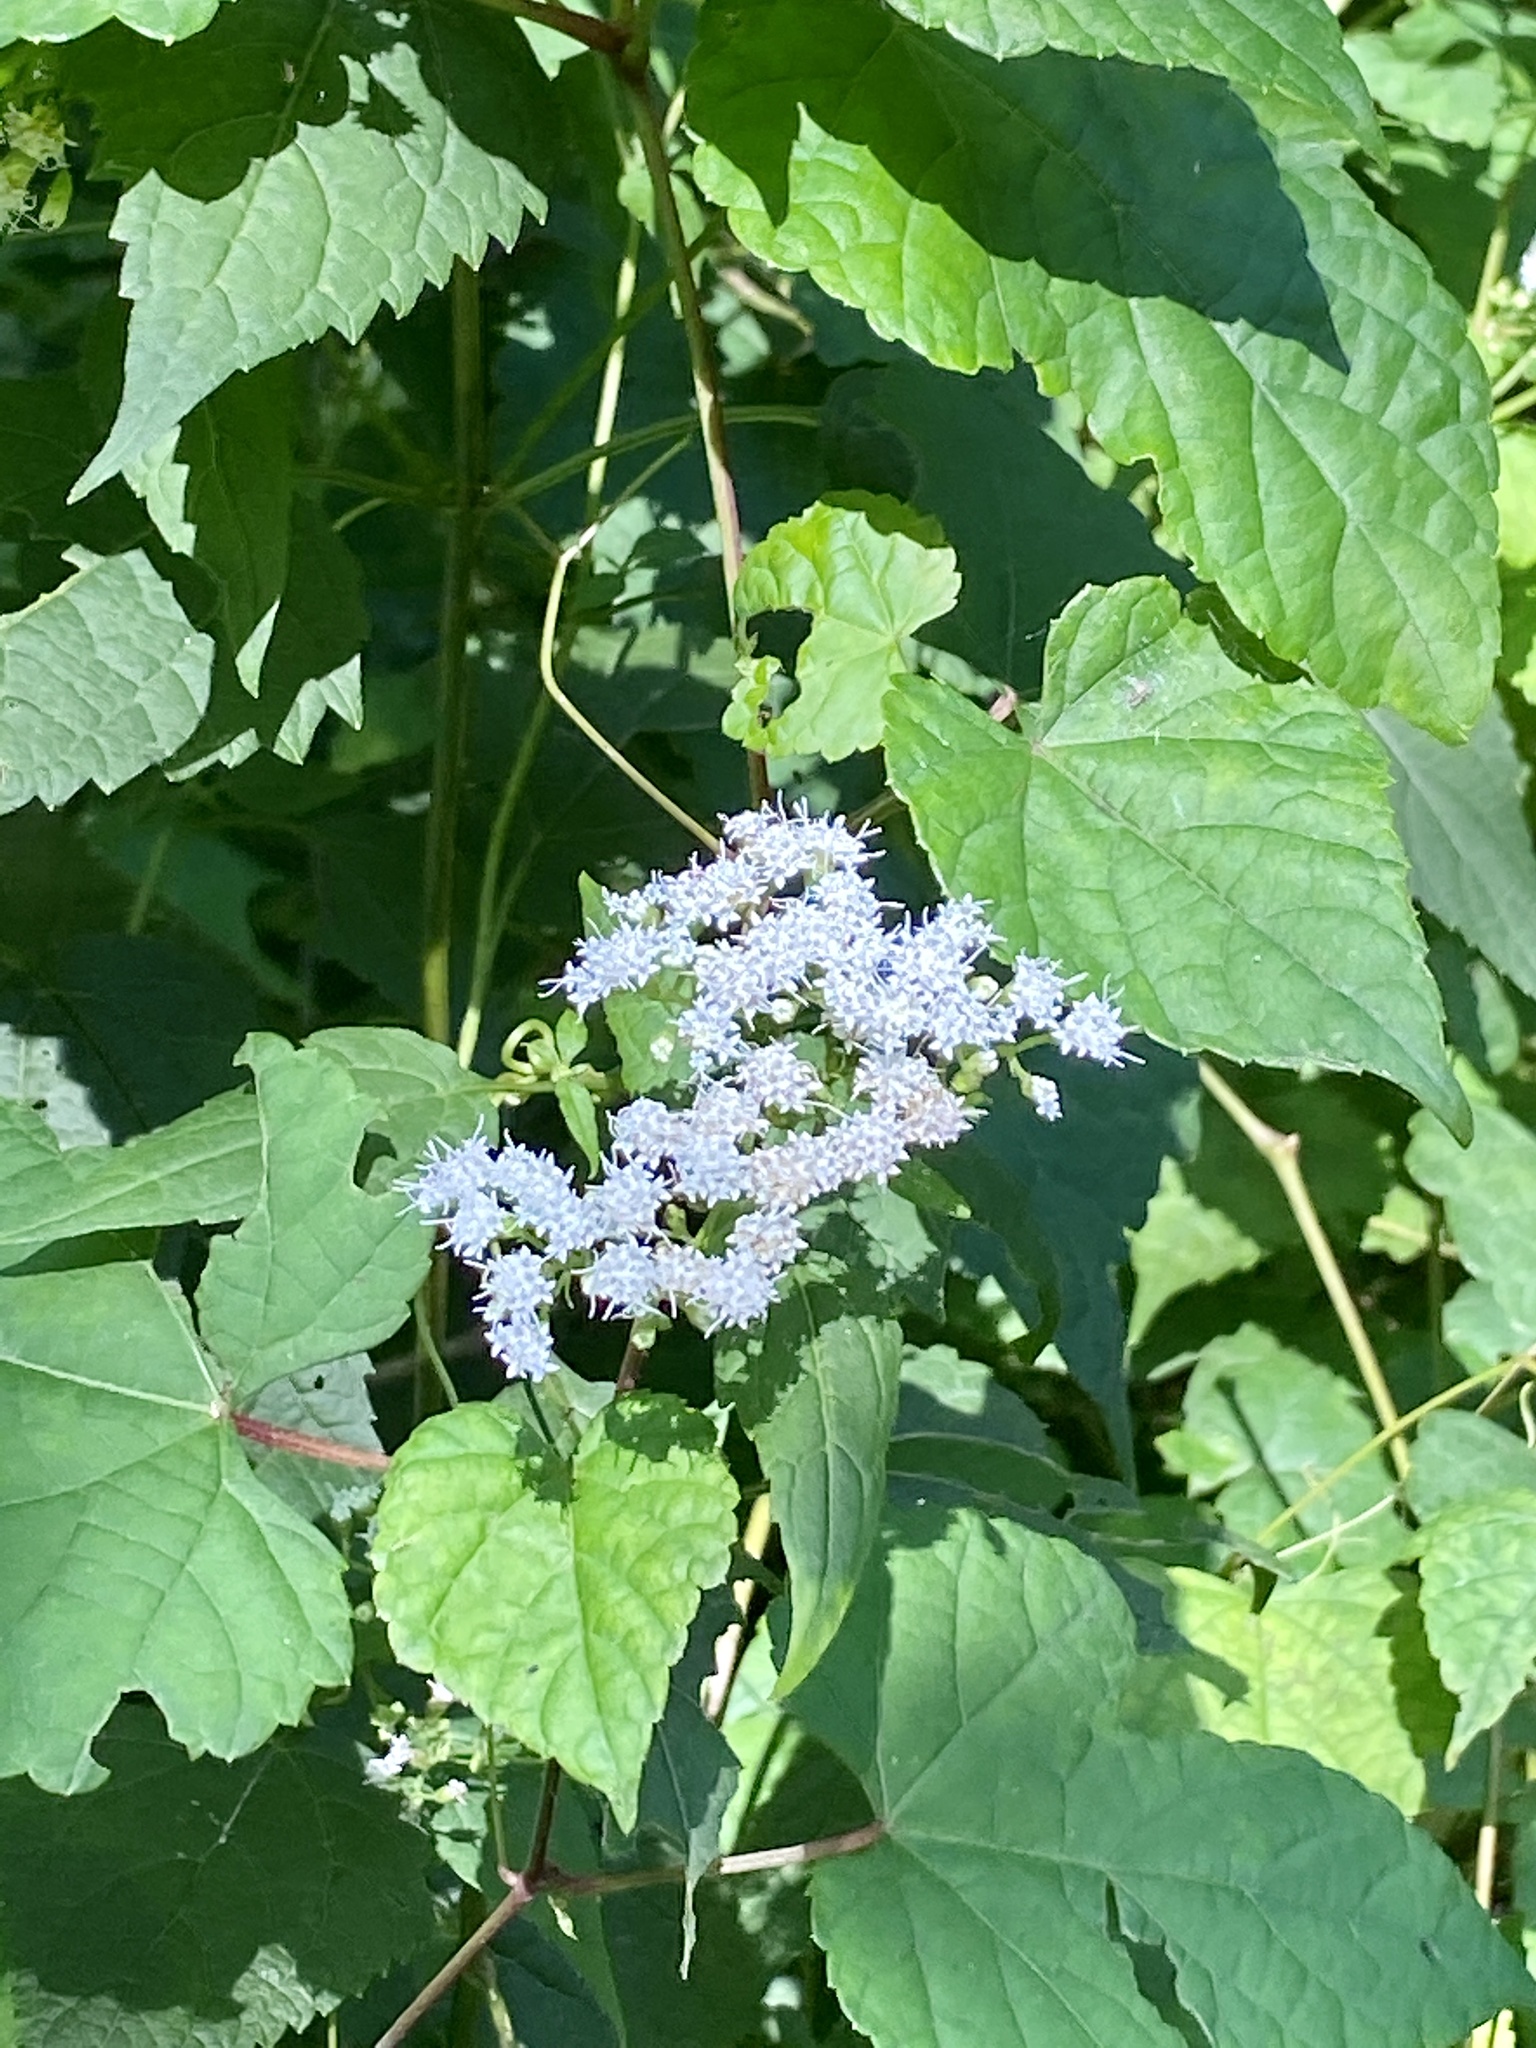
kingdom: Plantae
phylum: Tracheophyta
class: Magnoliopsida
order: Asterales
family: Asteraceae
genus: Ageratina
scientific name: Ageratina altissima
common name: White snakeroot
